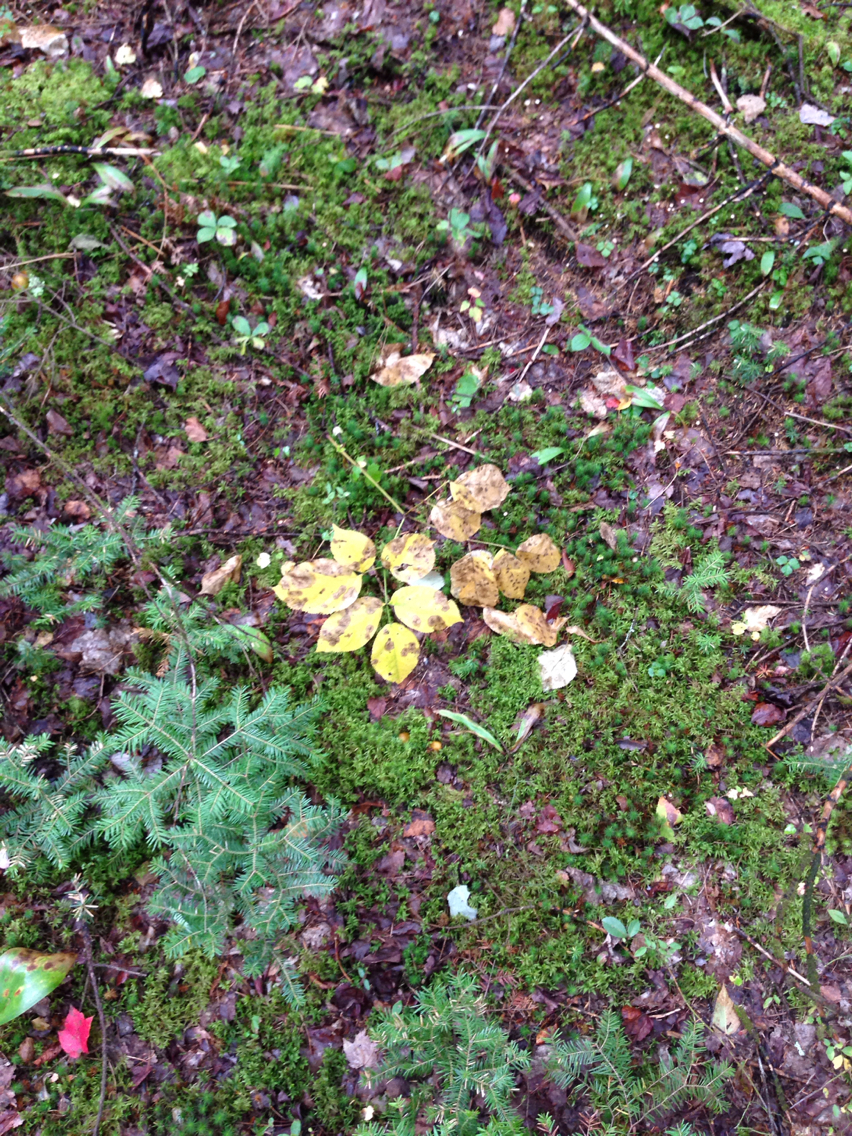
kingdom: Plantae
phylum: Tracheophyta
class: Magnoliopsida
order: Apiales
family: Araliaceae
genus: Aralia
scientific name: Aralia nudicaulis
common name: Wild sarsaparilla
